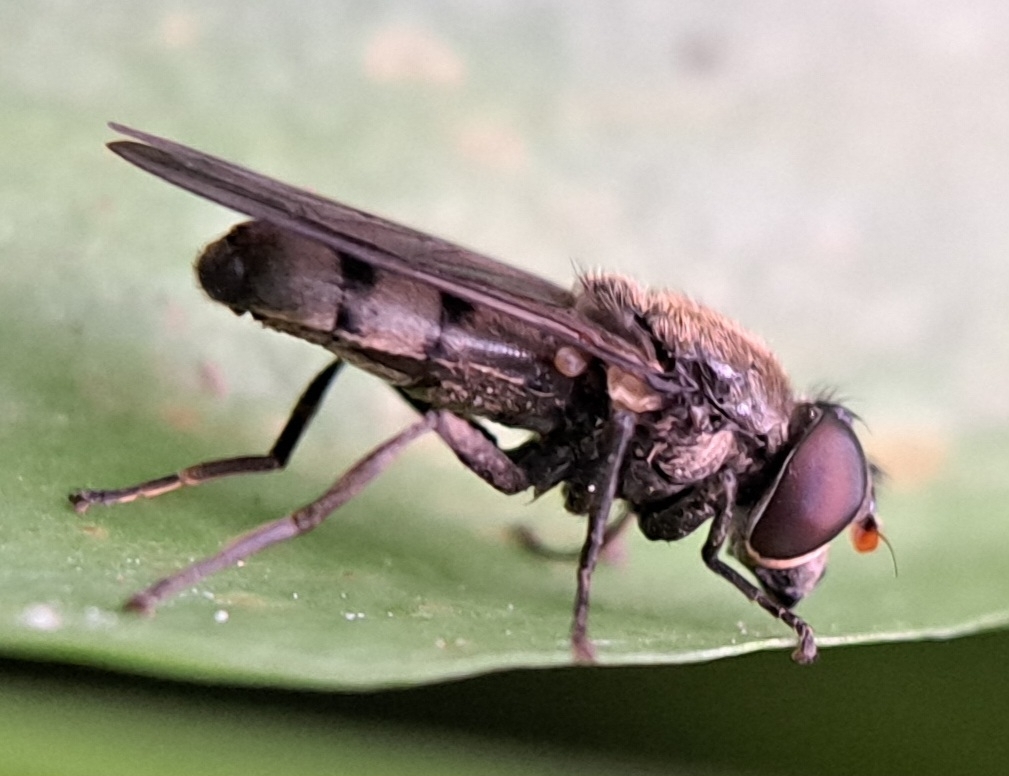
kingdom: Animalia
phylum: Arthropoda
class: Insecta
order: Diptera
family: Syrphidae
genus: Cheilosia
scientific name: Cheilosia pagana
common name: Hover fly
